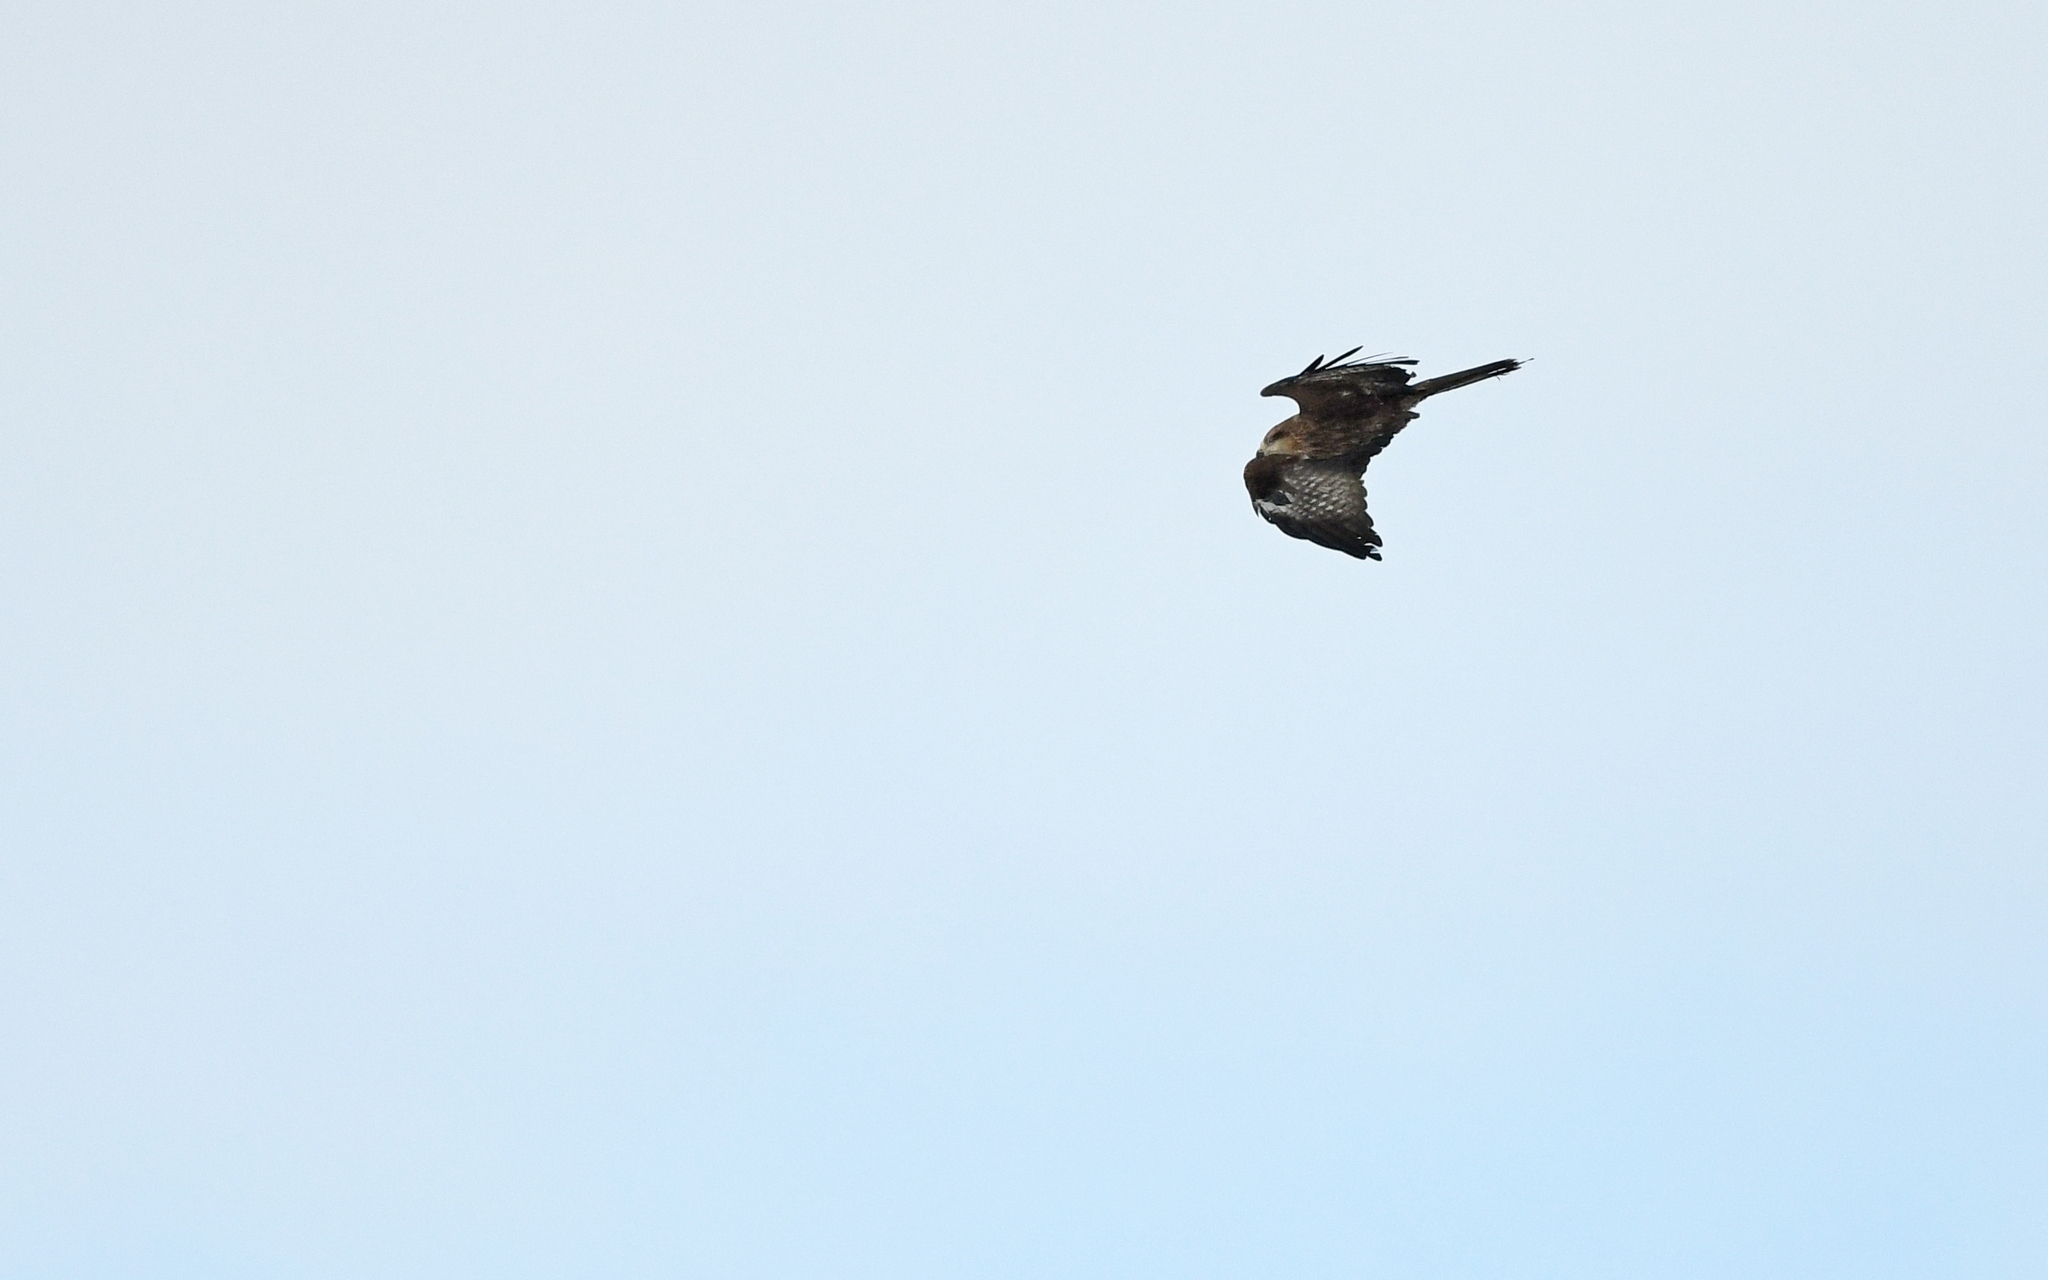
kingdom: Animalia
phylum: Chordata
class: Aves
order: Accipitriformes
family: Accipitridae
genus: Milvus
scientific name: Milvus migrans
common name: Black kite
